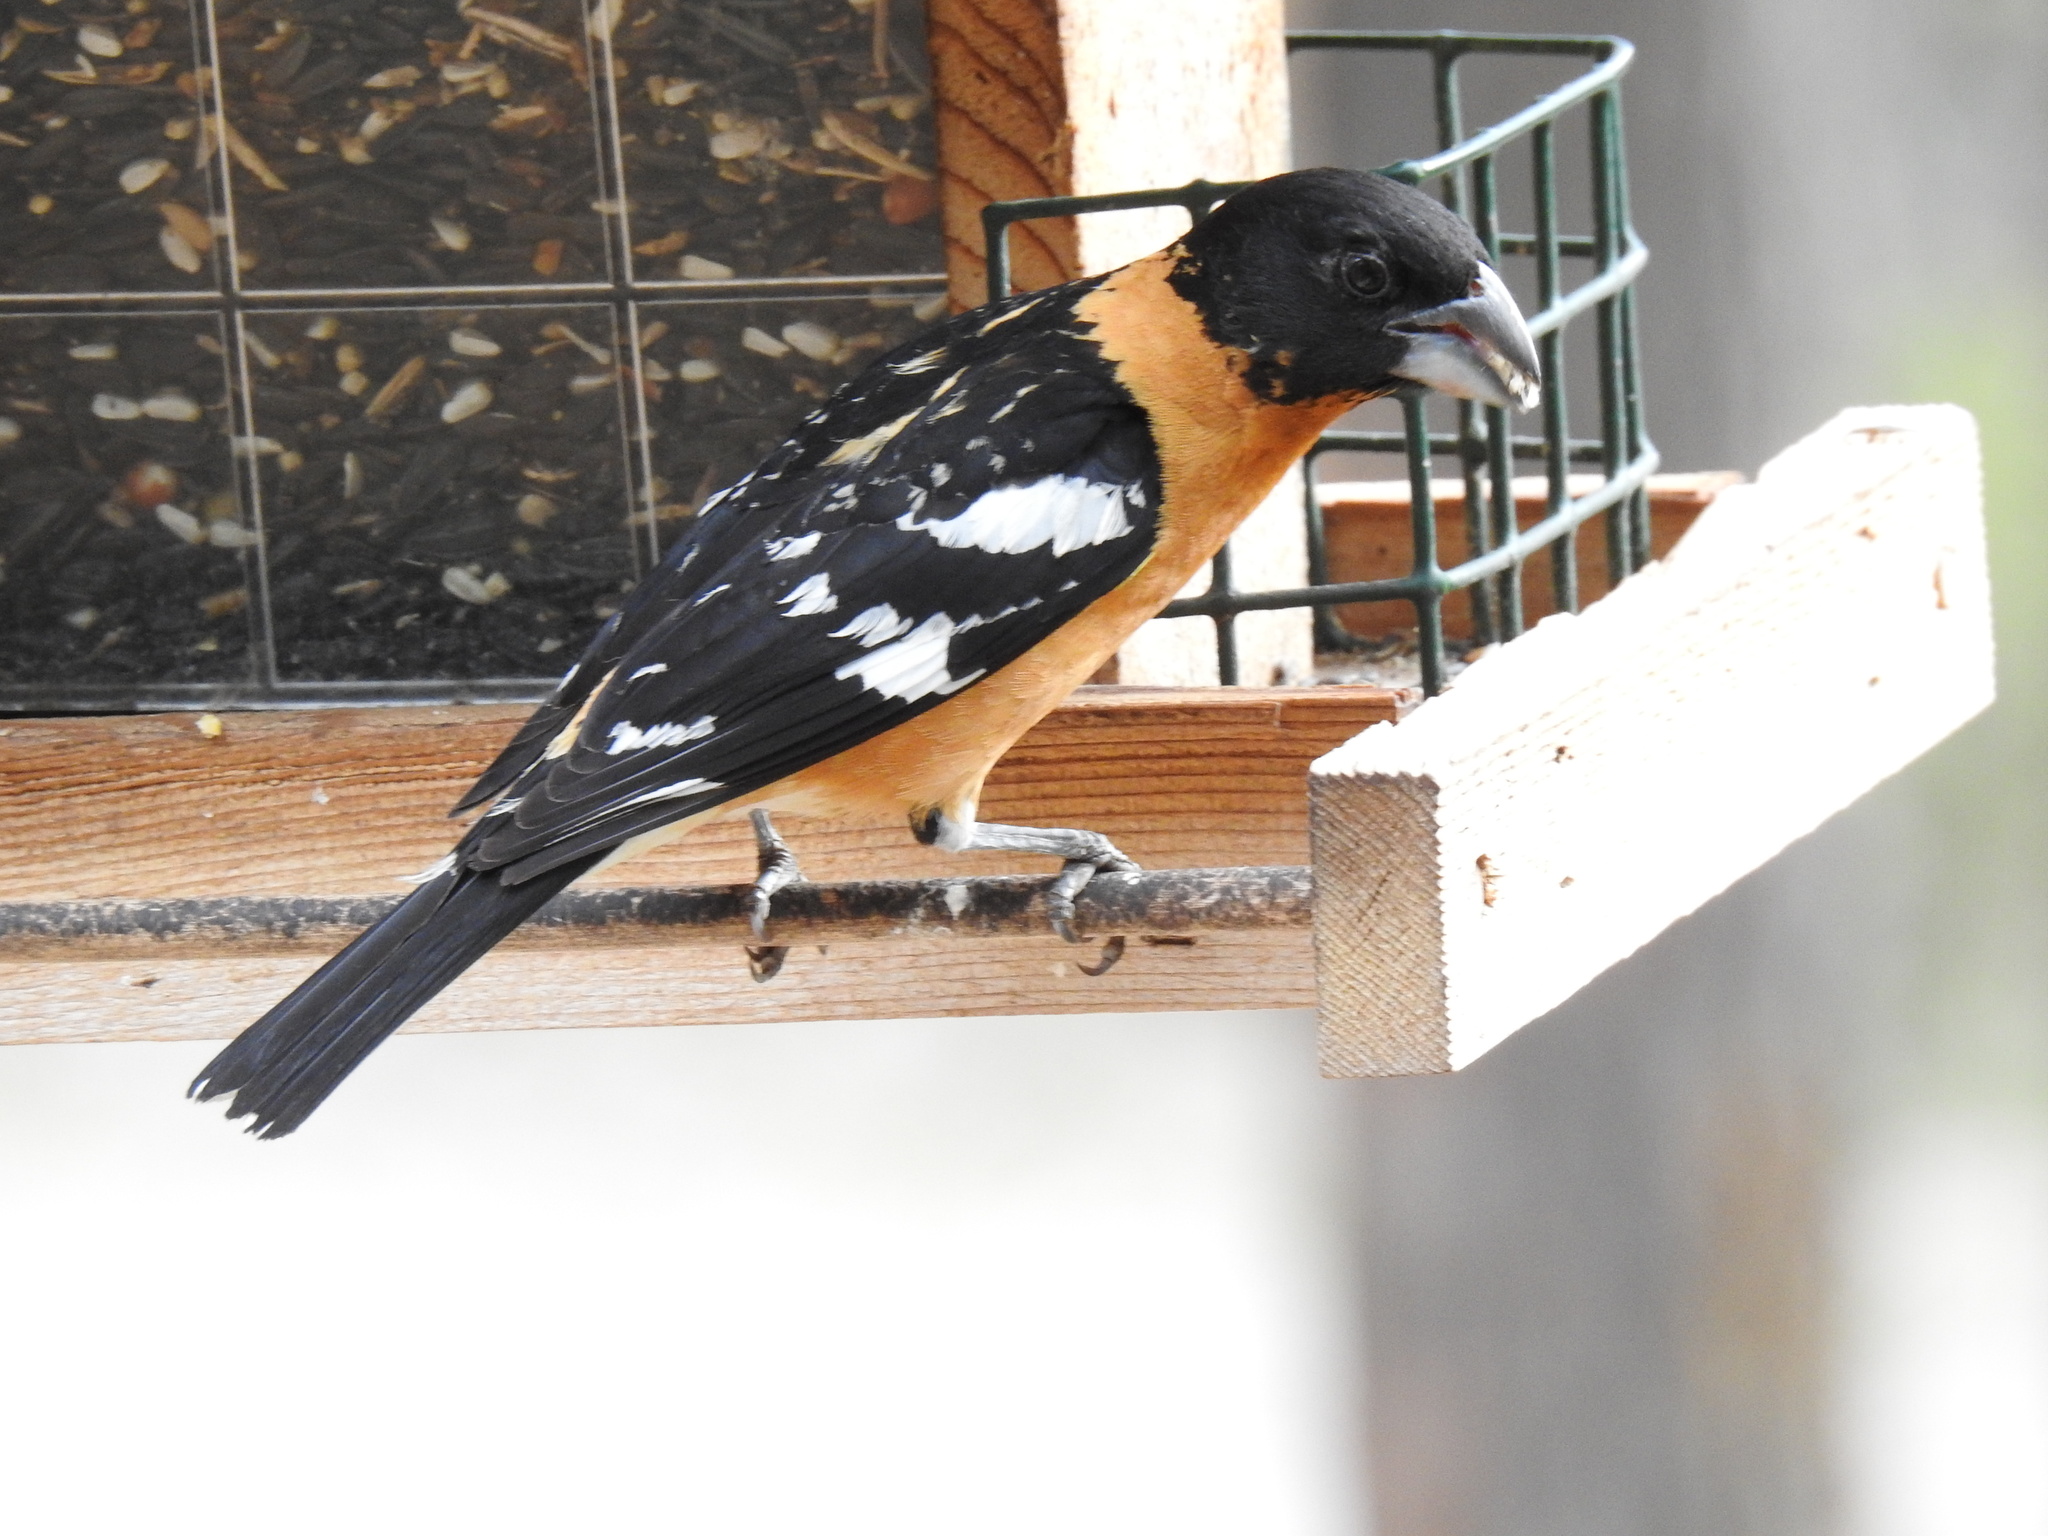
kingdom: Animalia
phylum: Chordata
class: Aves
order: Passeriformes
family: Cardinalidae
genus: Pheucticus
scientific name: Pheucticus melanocephalus
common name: Black-headed grosbeak
